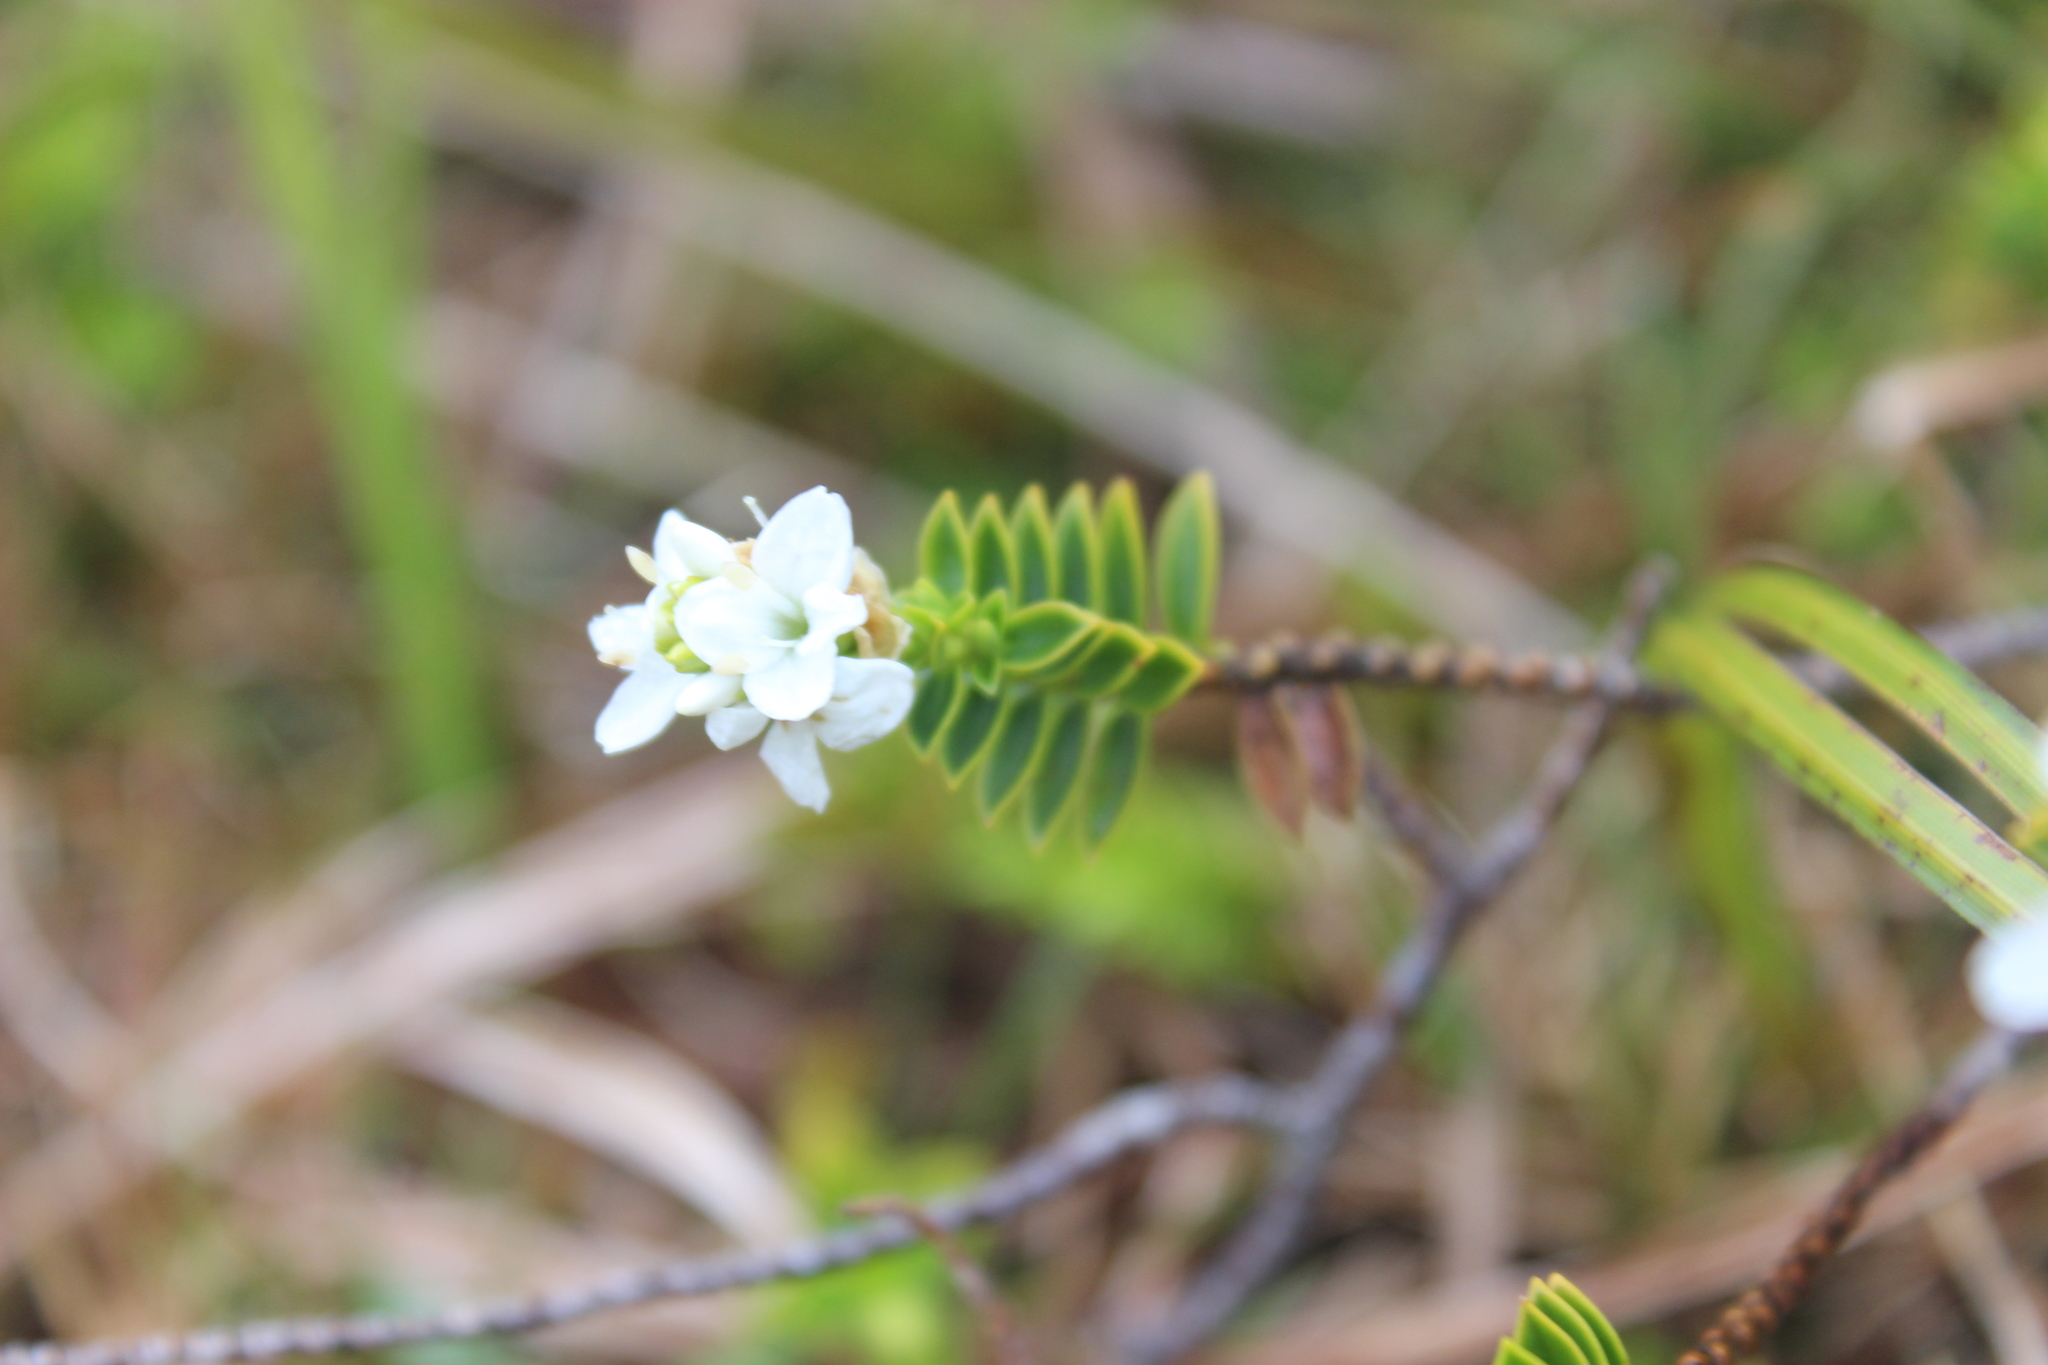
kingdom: Plantae
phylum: Tracheophyta
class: Magnoliopsida
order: Lamiales
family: Plantaginaceae
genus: Veronica
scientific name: Veronica odora
